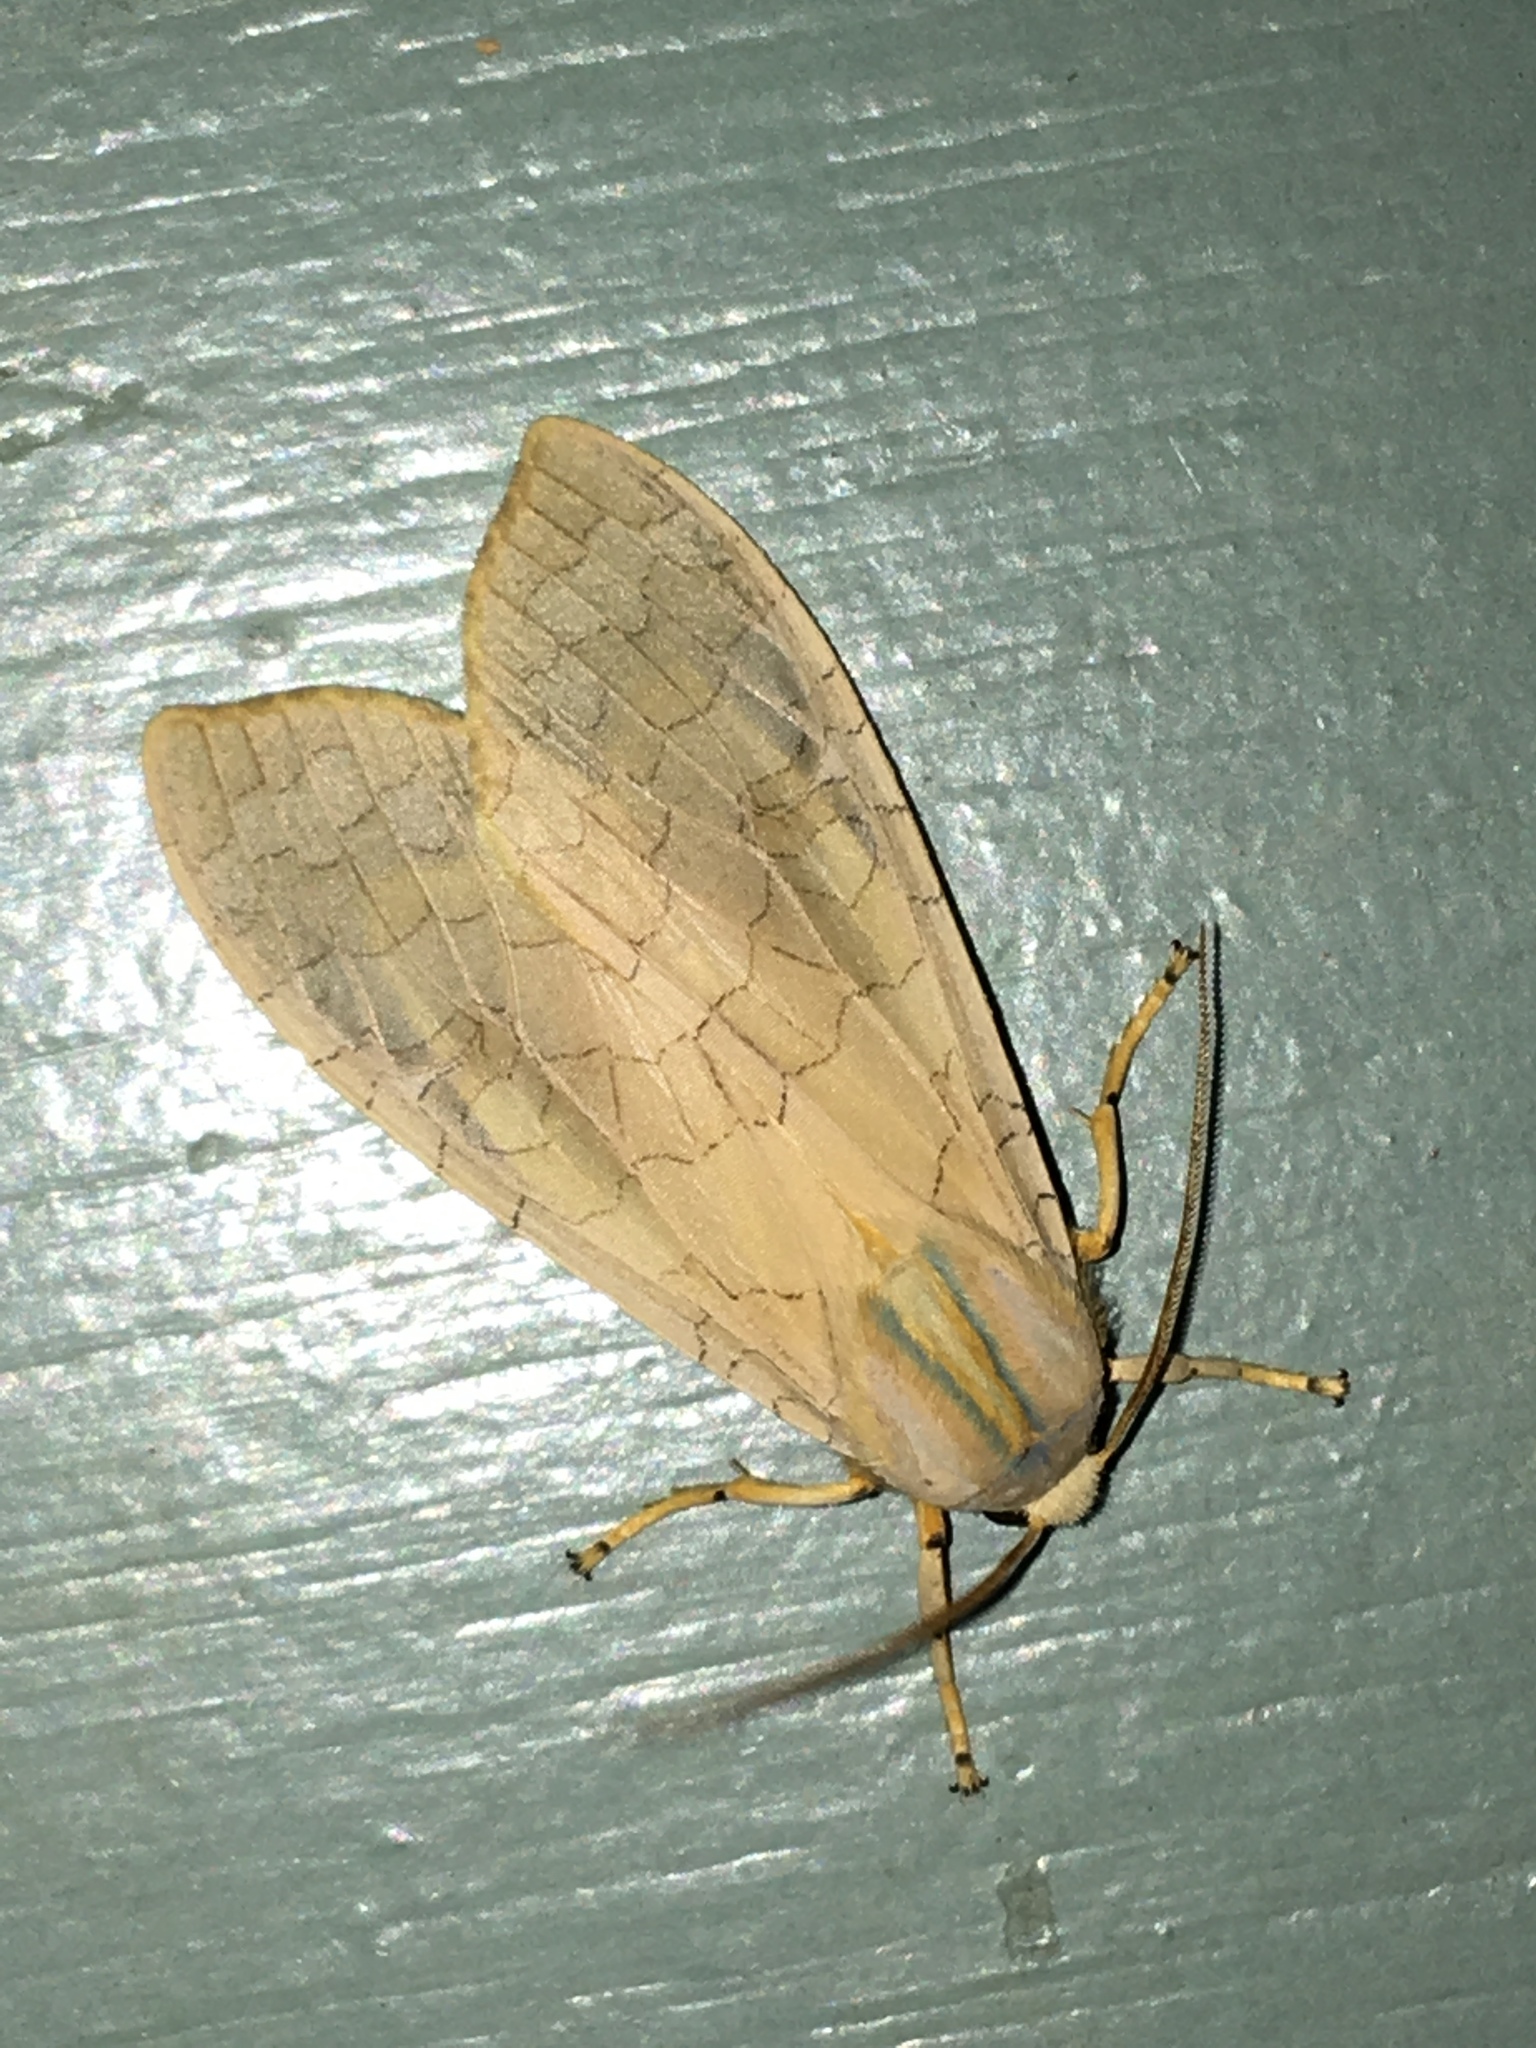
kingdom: Animalia
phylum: Arthropoda
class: Insecta
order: Lepidoptera
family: Erebidae
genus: Halysidota
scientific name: Halysidota tessellaris
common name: Banded tussock moth
